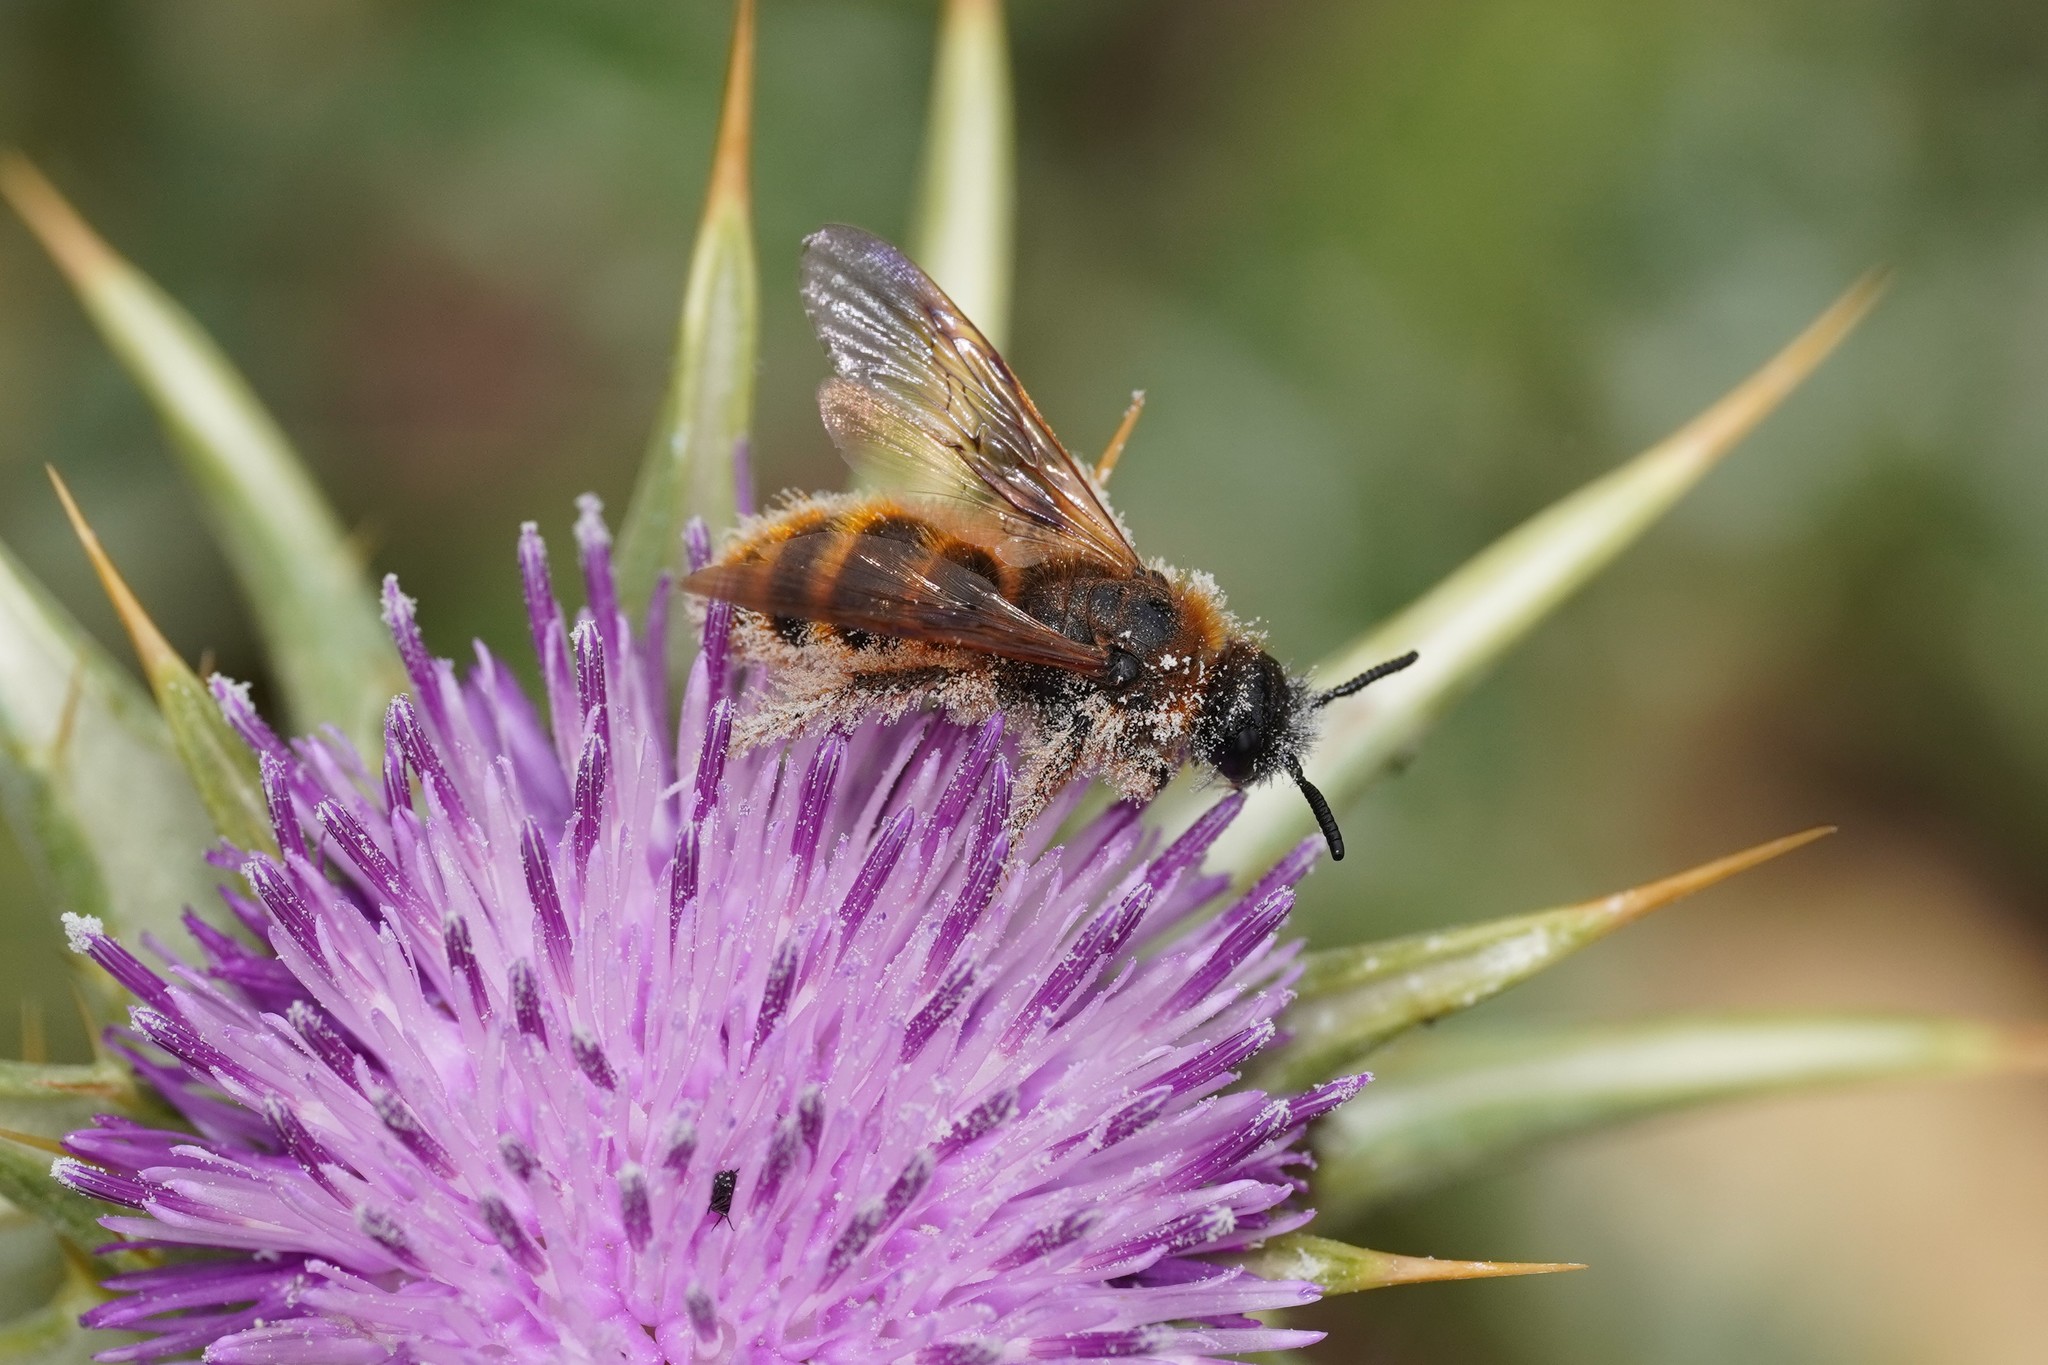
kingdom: Animalia
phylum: Arthropoda
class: Insecta
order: Hymenoptera
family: Scoliidae
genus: Dasyscolia
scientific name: Dasyscolia ciliata
